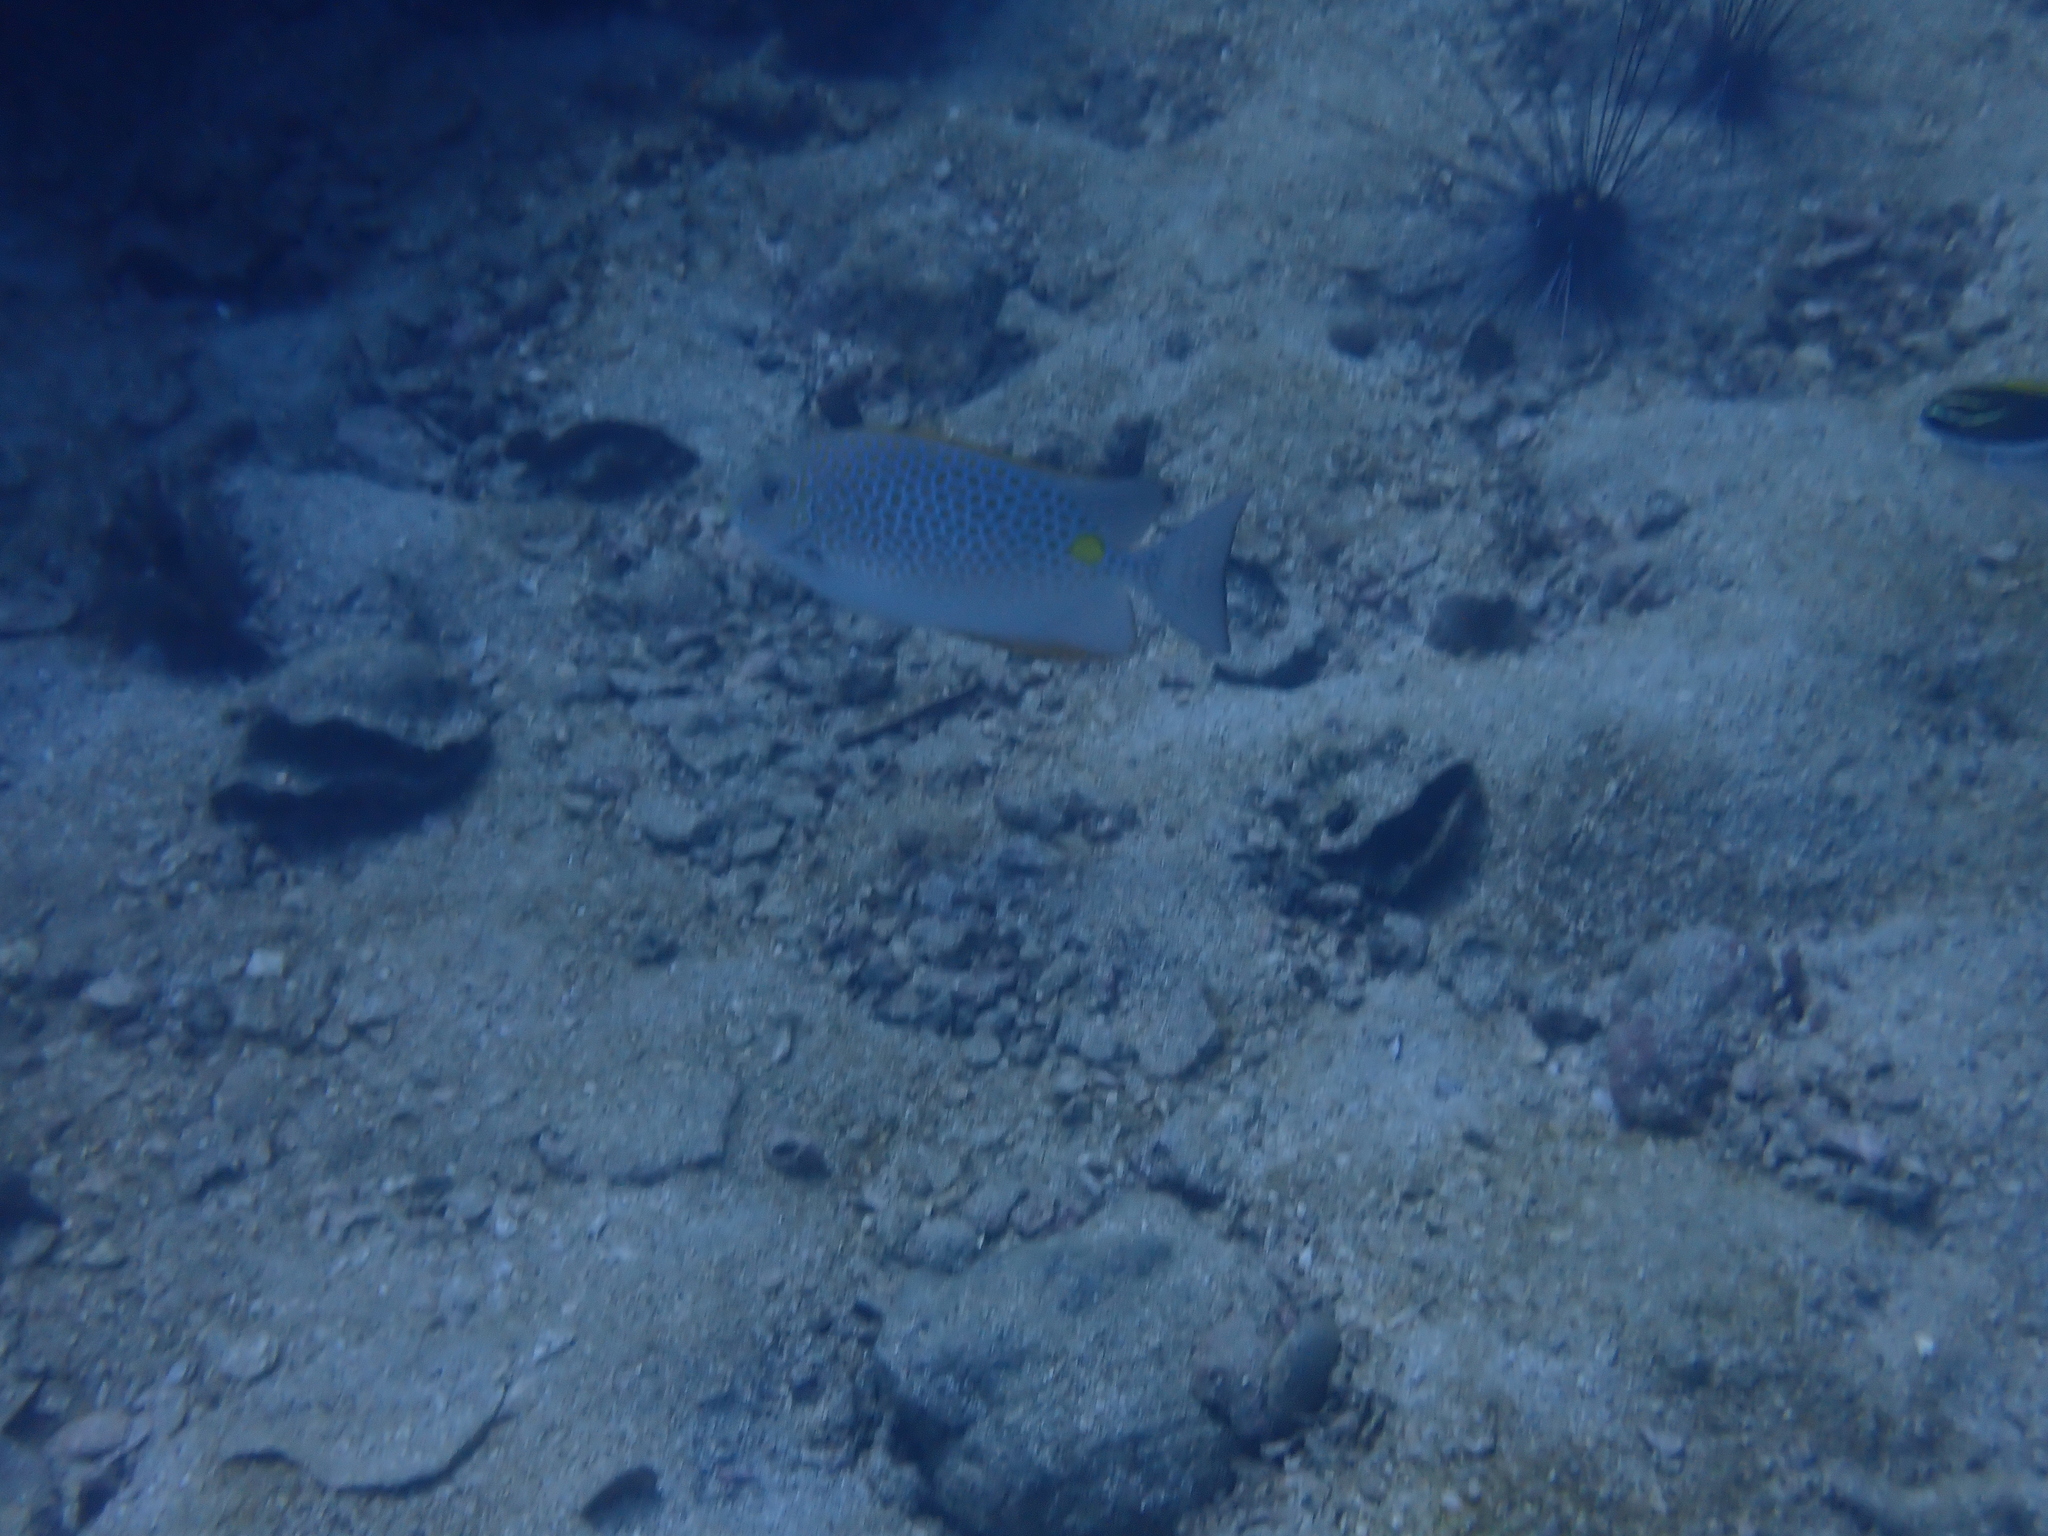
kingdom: Animalia
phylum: Chordata
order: Perciformes
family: Siganidae
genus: Siganus
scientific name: Siganus guttatus
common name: Golden rabbitfish
